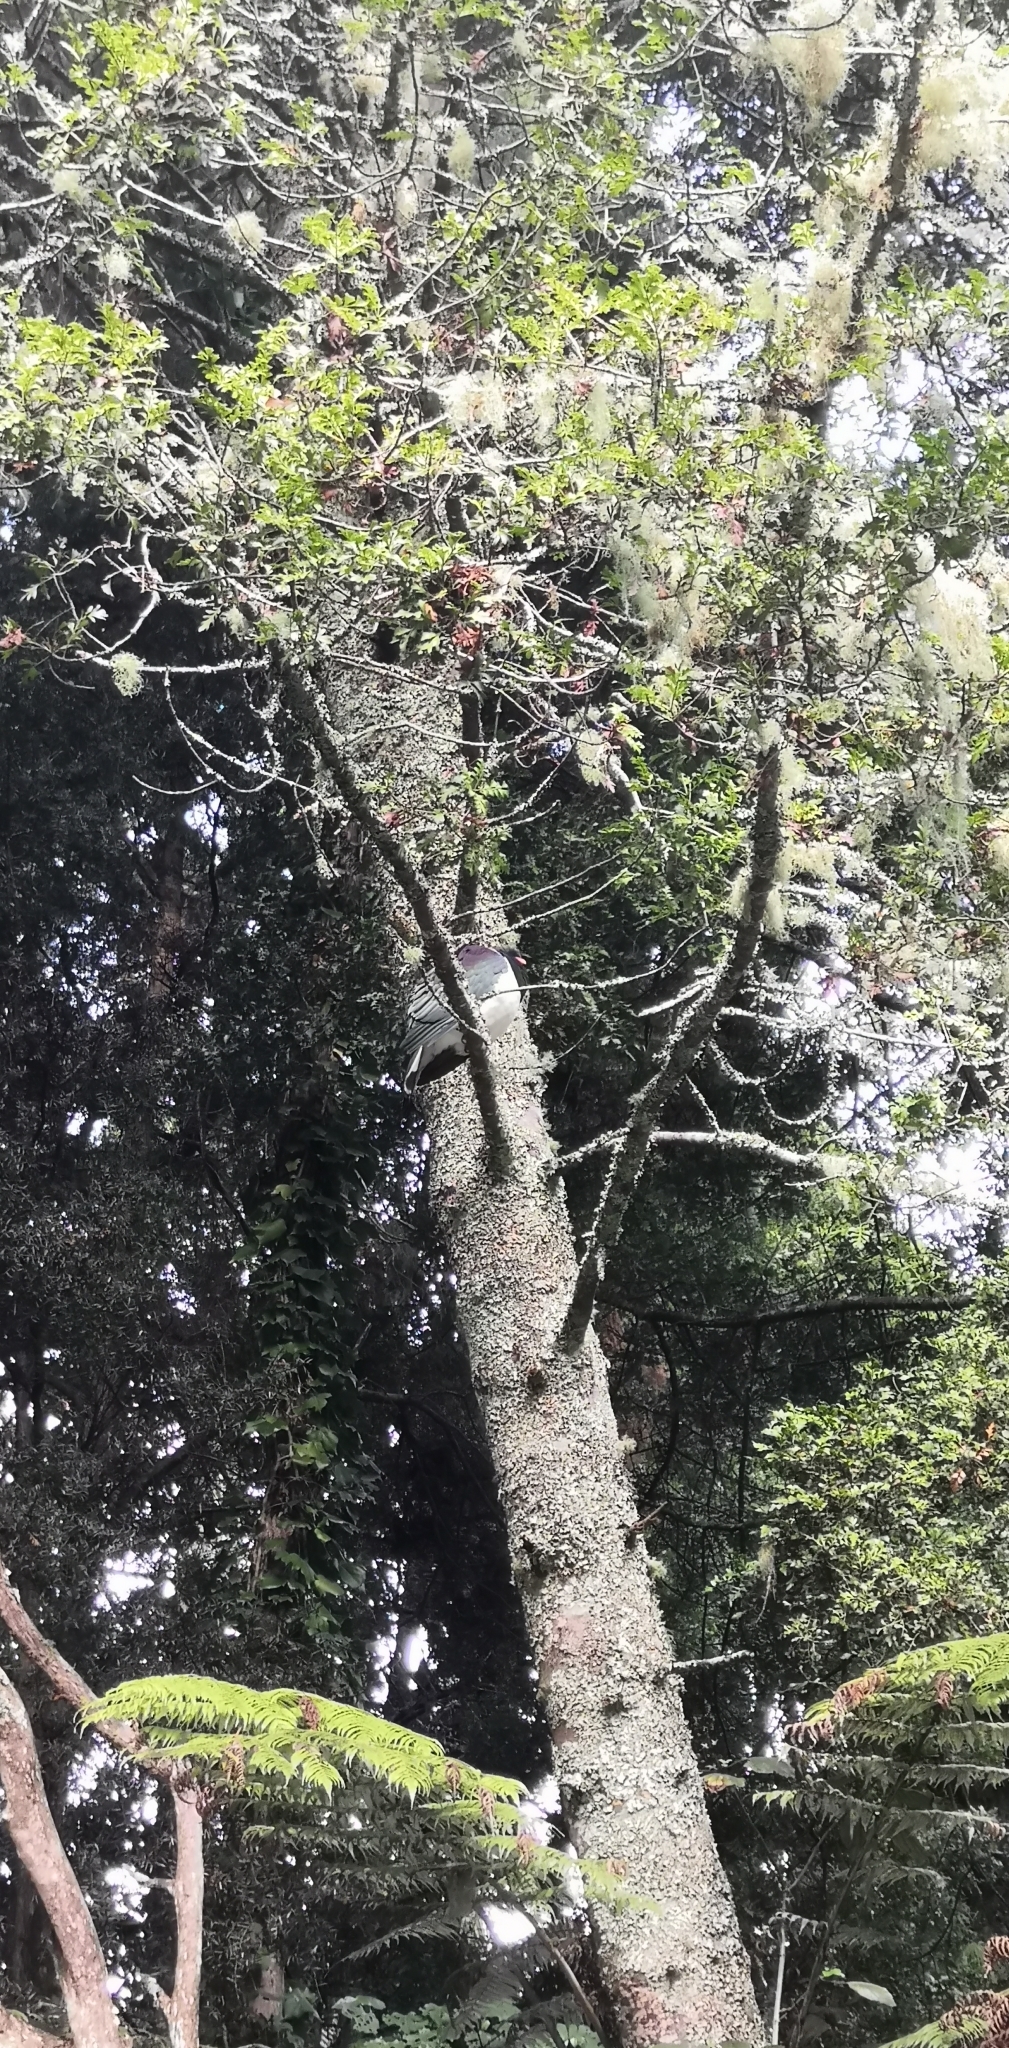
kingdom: Animalia
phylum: Chordata
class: Aves
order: Columbiformes
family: Columbidae
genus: Hemiphaga
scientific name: Hemiphaga novaeseelandiae
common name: New zealand pigeon
